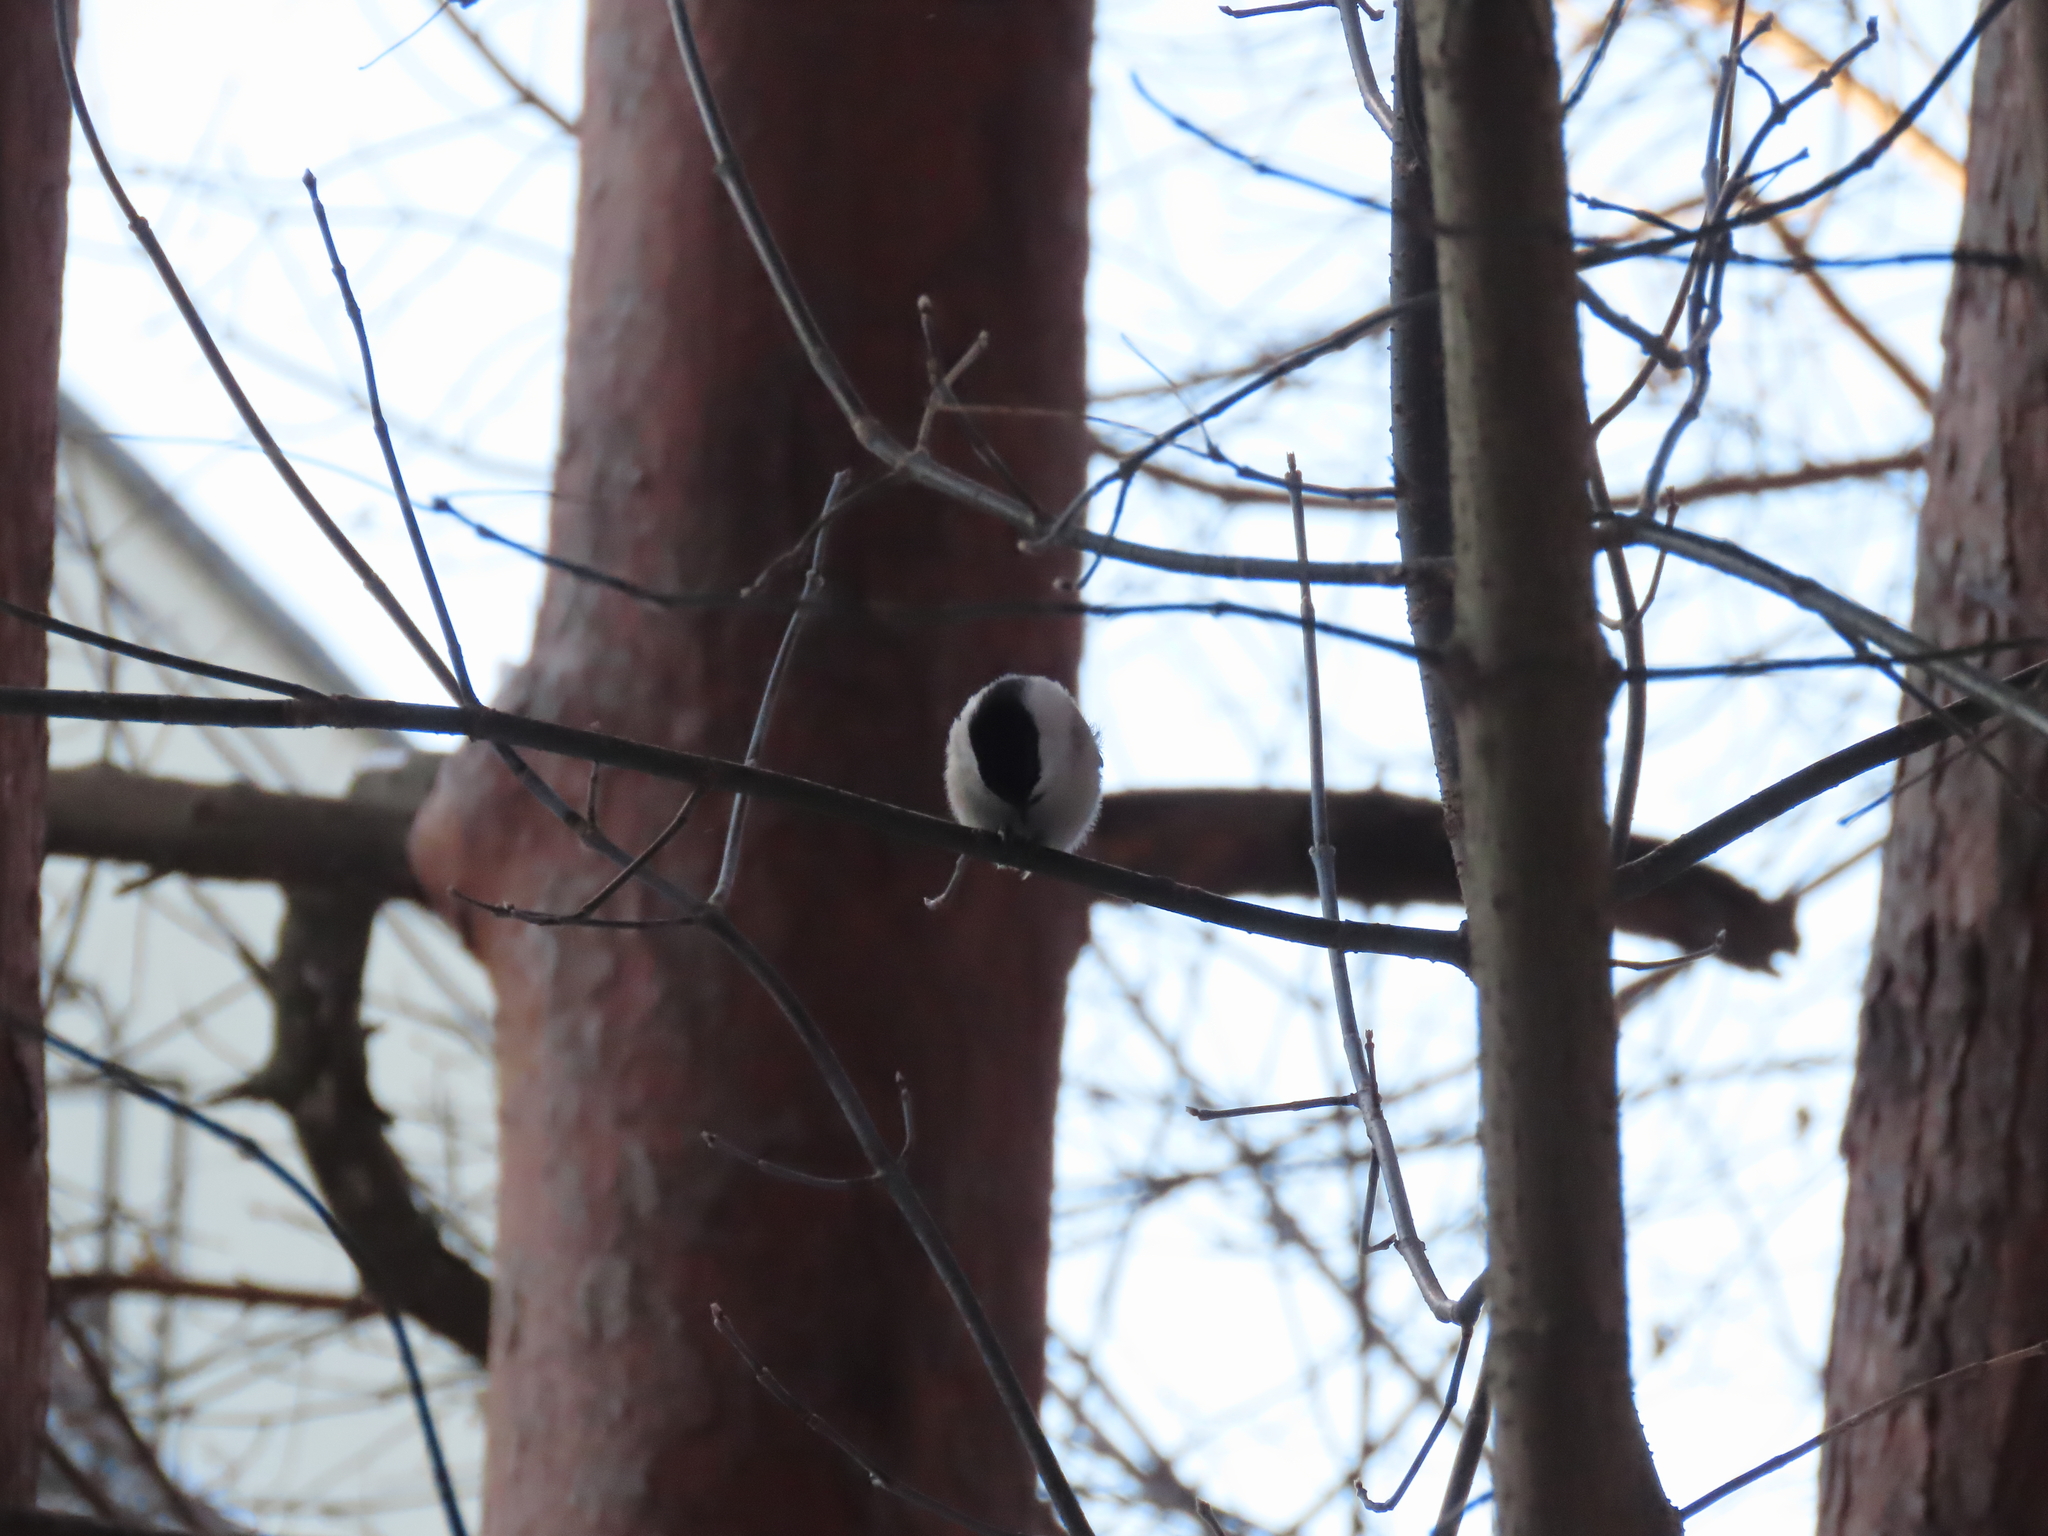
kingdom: Animalia
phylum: Chordata
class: Aves
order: Passeriformes
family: Paridae
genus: Poecile
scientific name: Poecile montanus
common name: Willow tit
